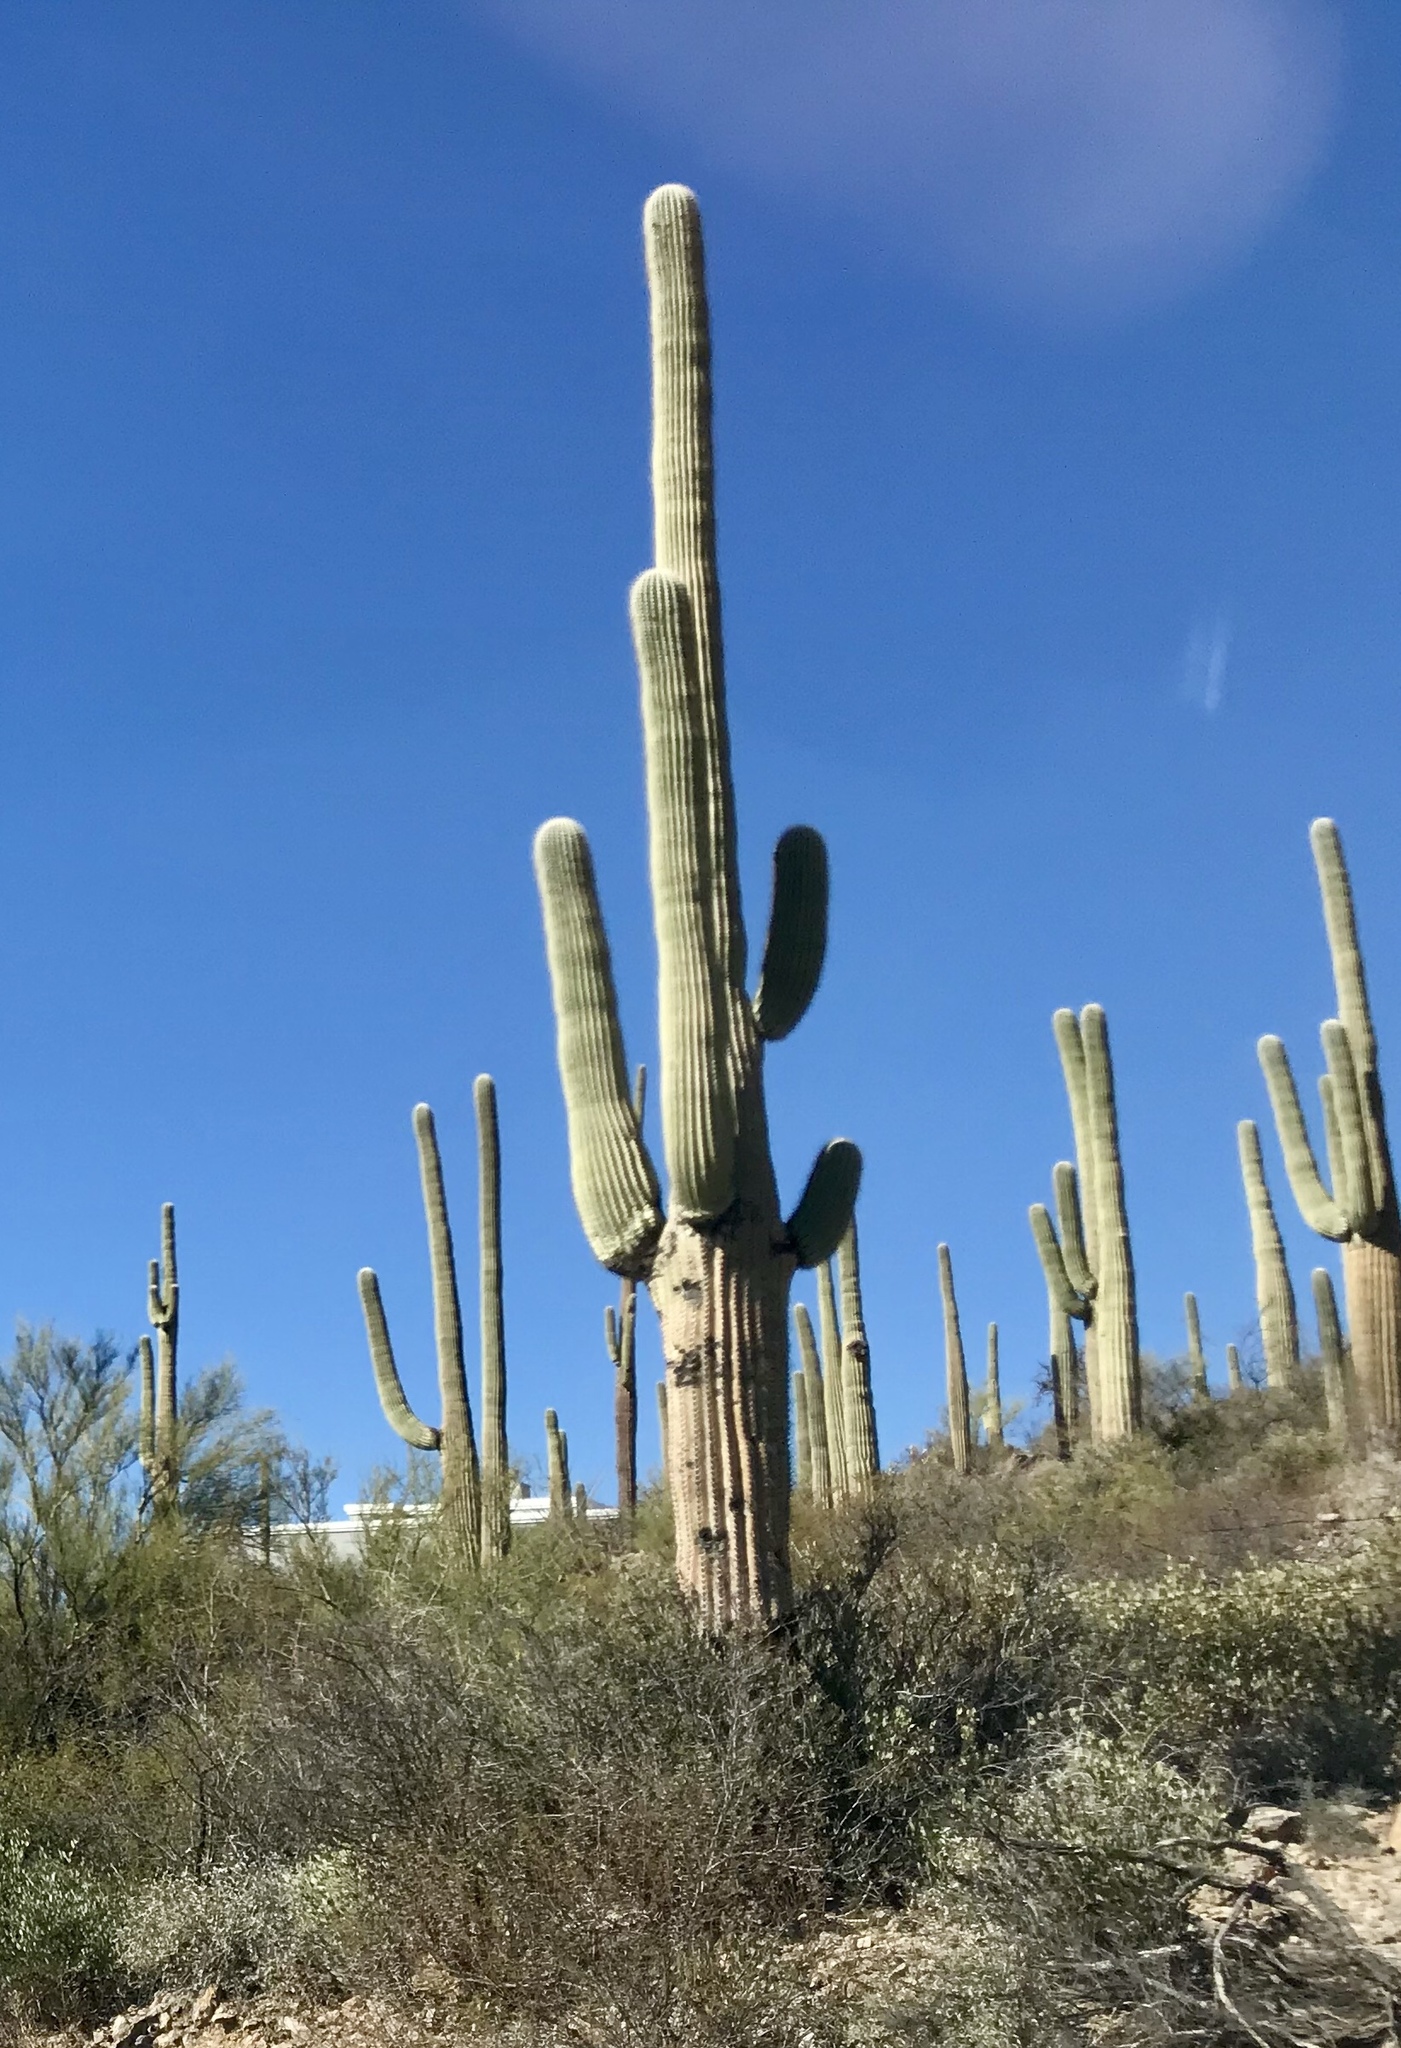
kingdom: Plantae
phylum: Tracheophyta
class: Magnoliopsida
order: Caryophyllales
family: Cactaceae
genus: Carnegiea
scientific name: Carnegiea gigantea
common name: Saguaro
